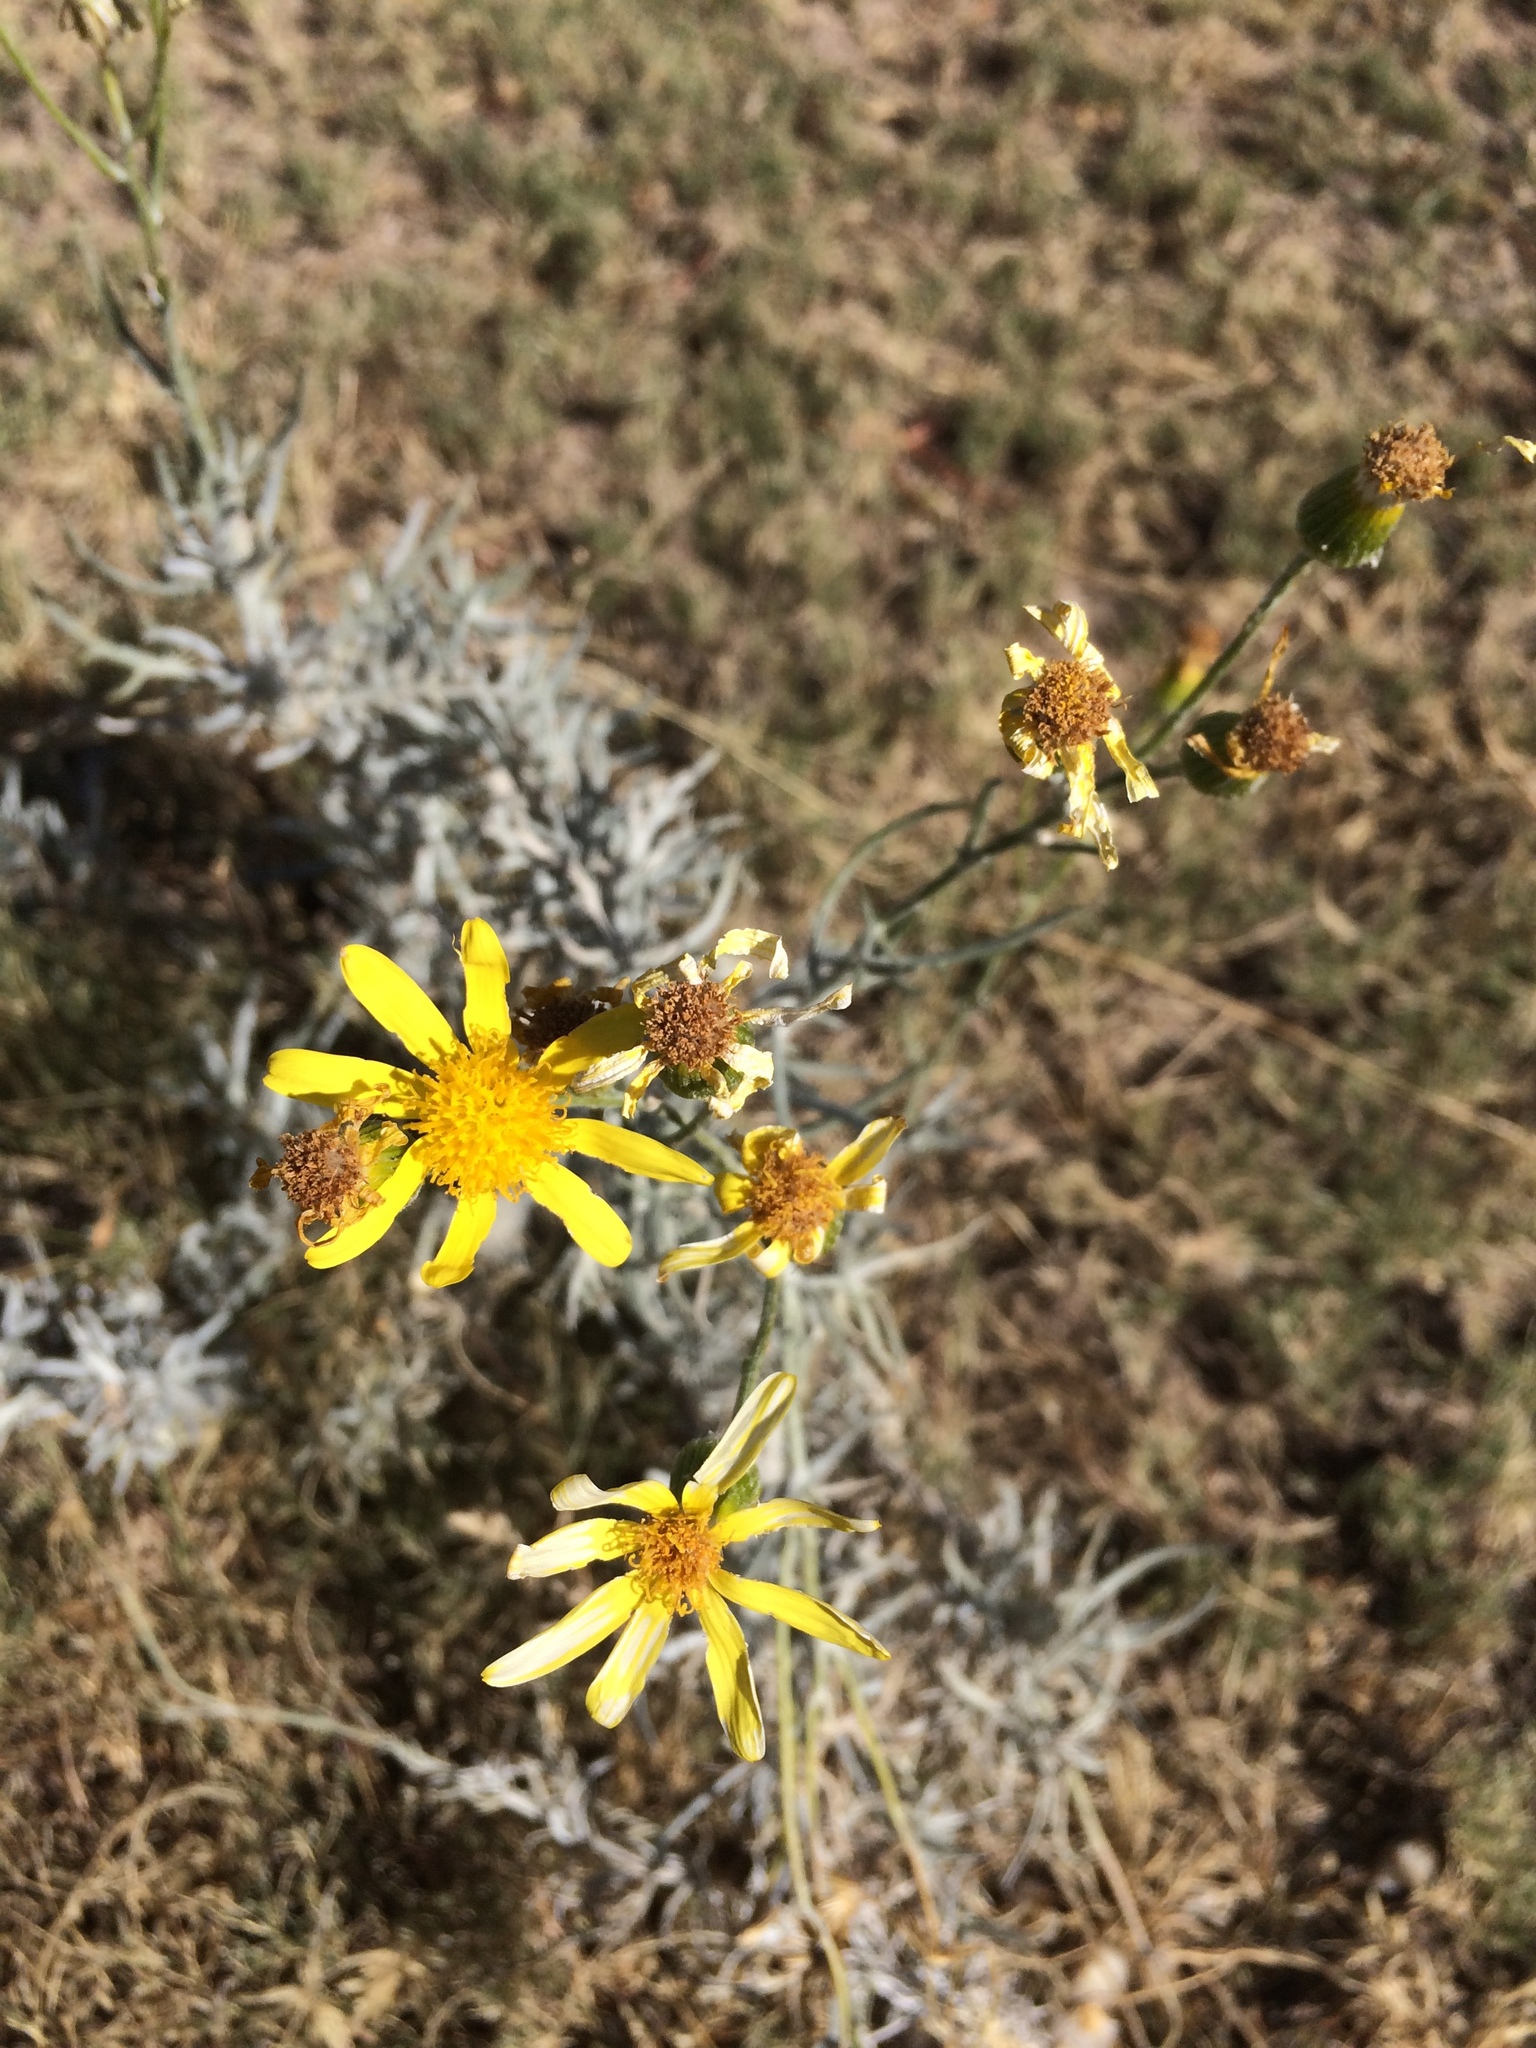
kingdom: Plantae
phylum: Tracheophyta
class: Magnoliopsida
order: Asterales
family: Asteraceae
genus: Senecio
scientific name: Senecio flaccidus
